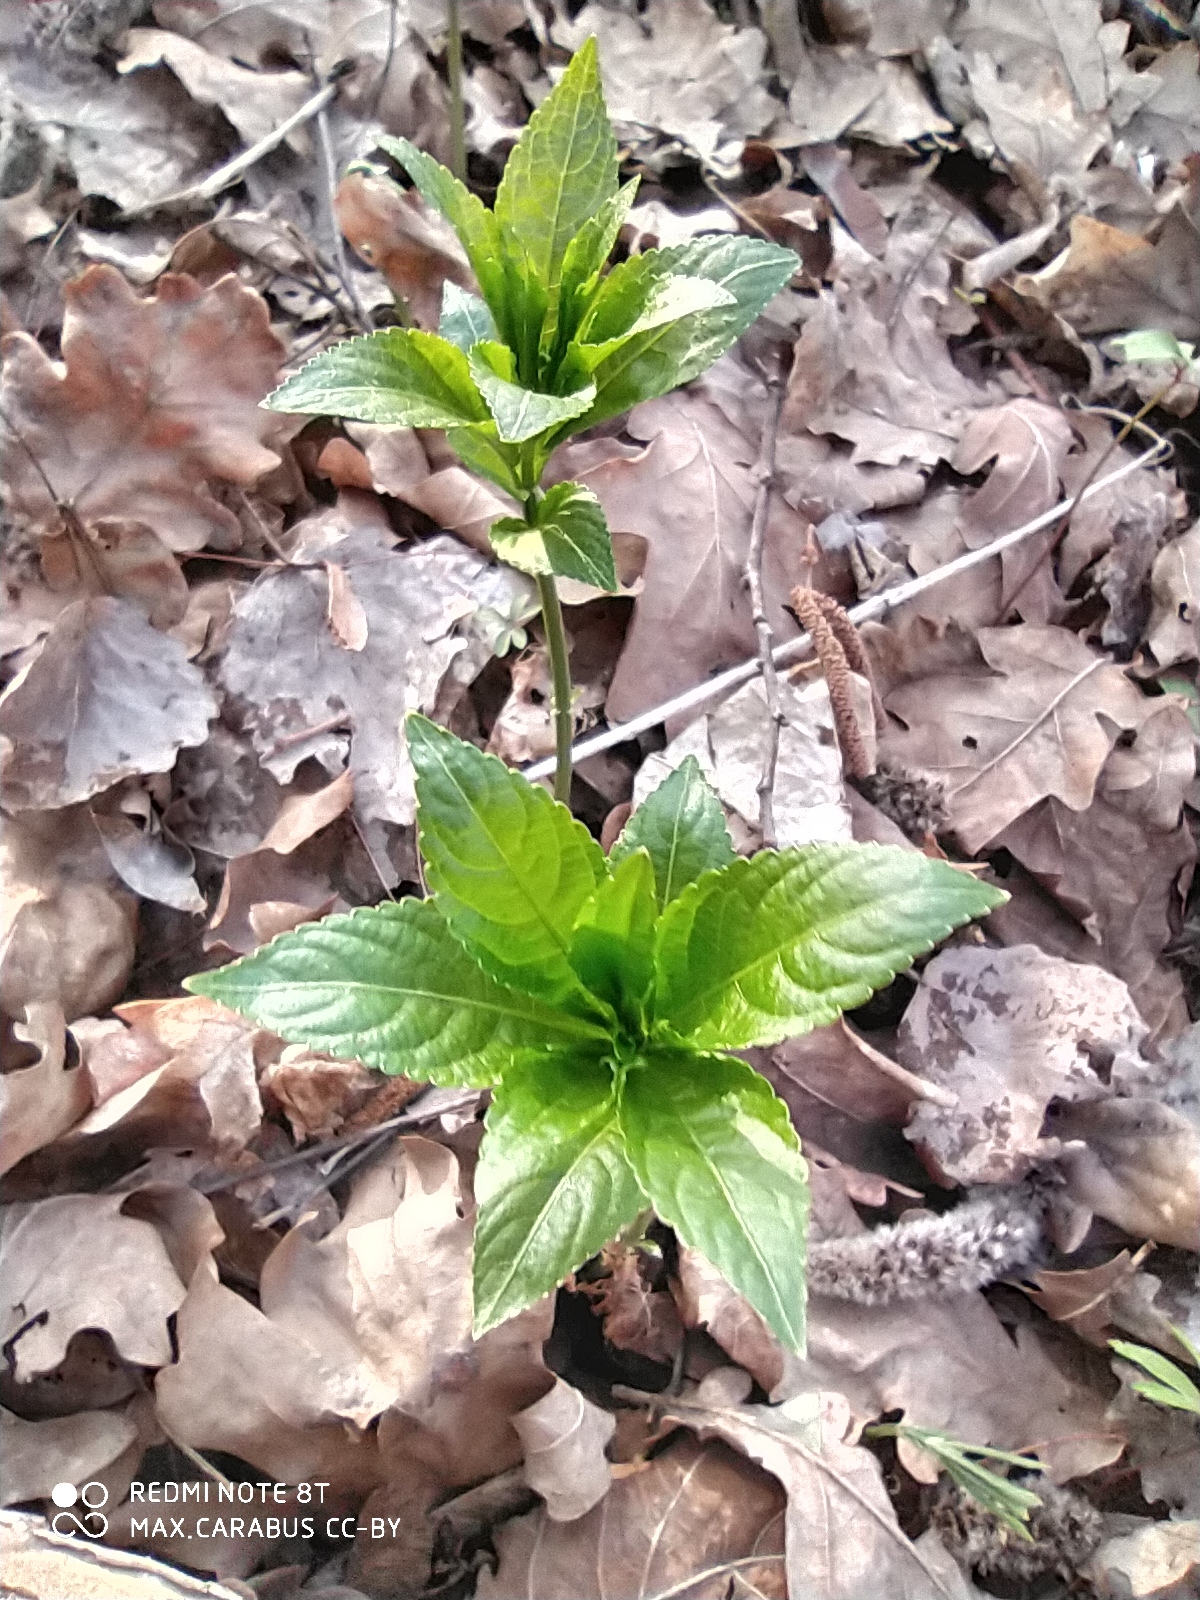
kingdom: Plantae
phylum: Tracheophyta
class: Magnoliopsida
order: Malpighiales
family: Euphorbiaceae
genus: Mercurialis
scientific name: Mercurialis perennis
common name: Dog mercury
